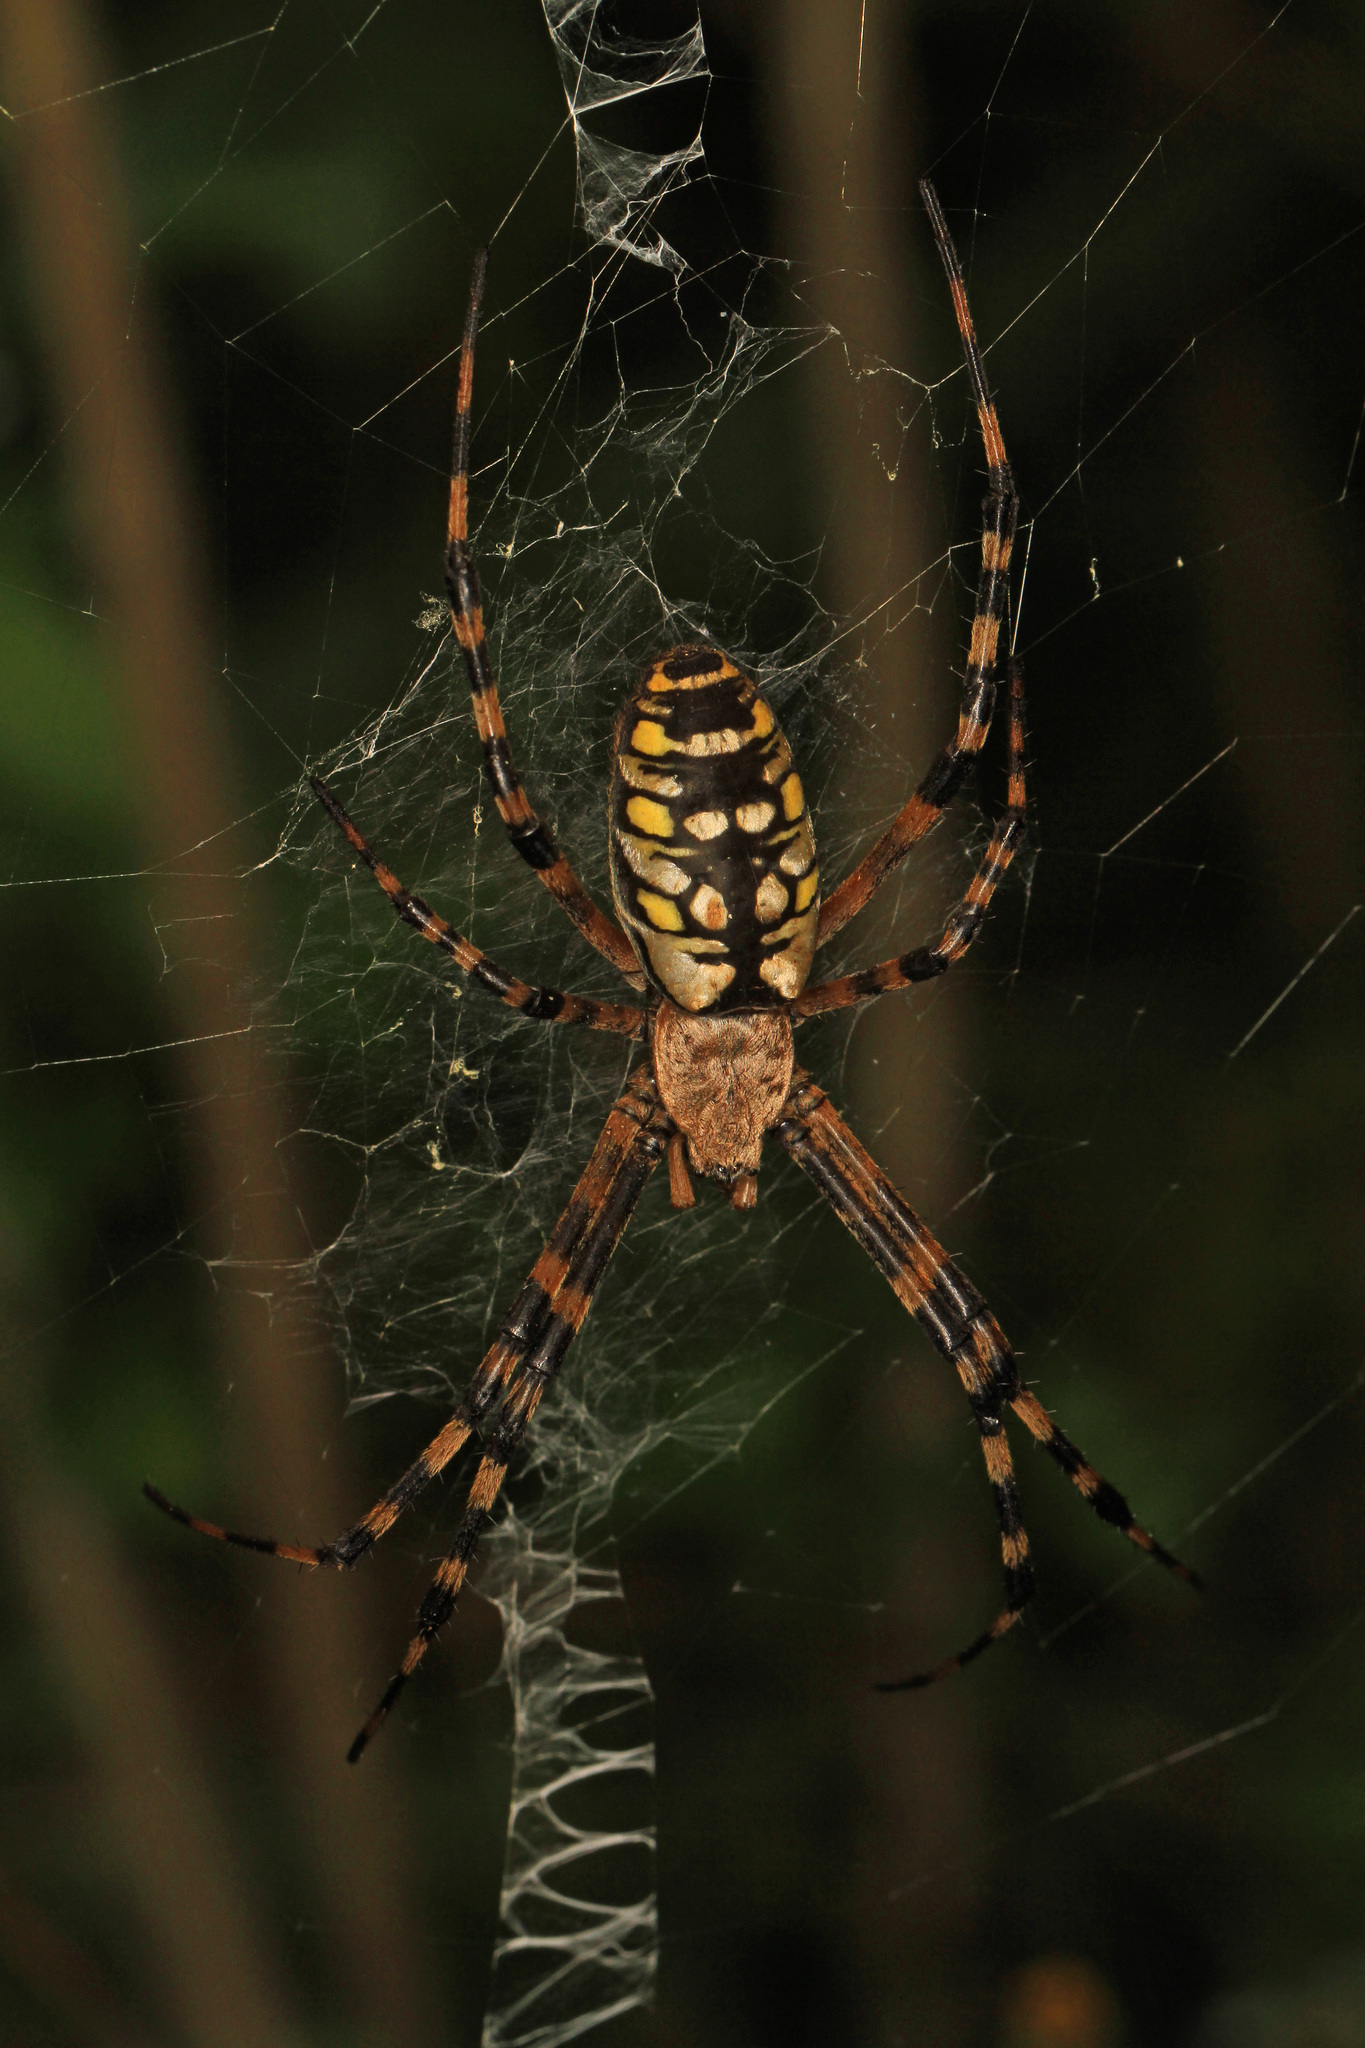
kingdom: Animalia
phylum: Arthropoda
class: Arachnida
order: Araneae
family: Araneidae
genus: Argiope
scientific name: Argiope aurantia
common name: Orb weavers
